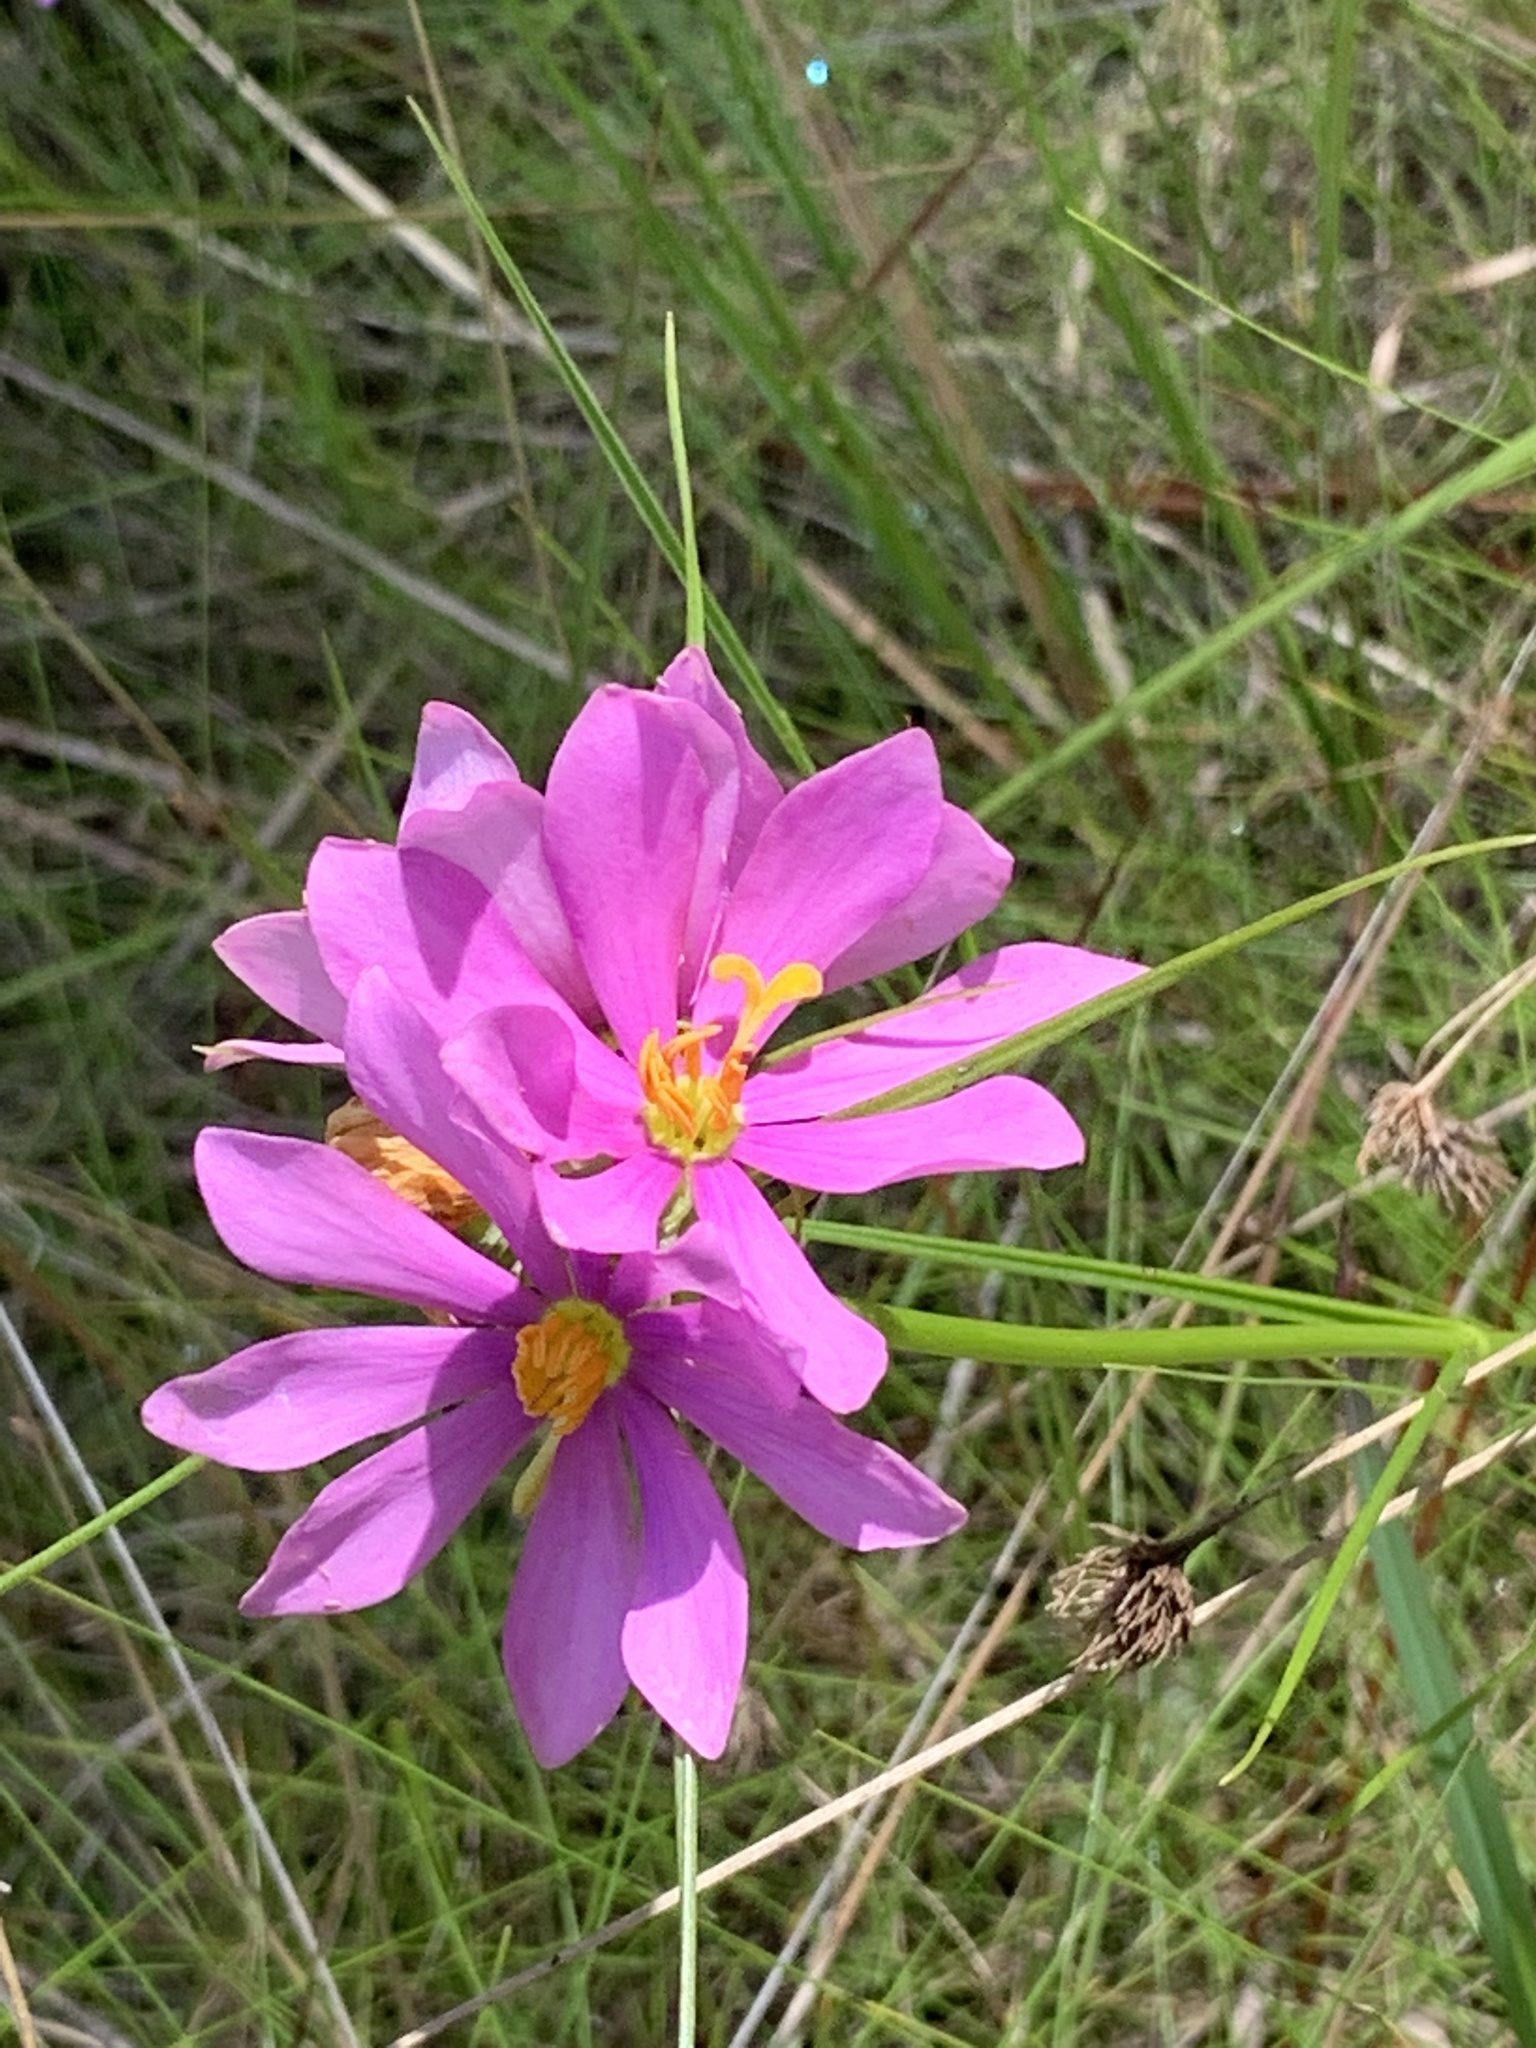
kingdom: Plantae
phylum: Tracheophyta
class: Magnoliopsida
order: Gentianales
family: Gentianaceae
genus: Sabatia
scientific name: Sabatia gentianoides
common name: Pinewoods rose-gentian
